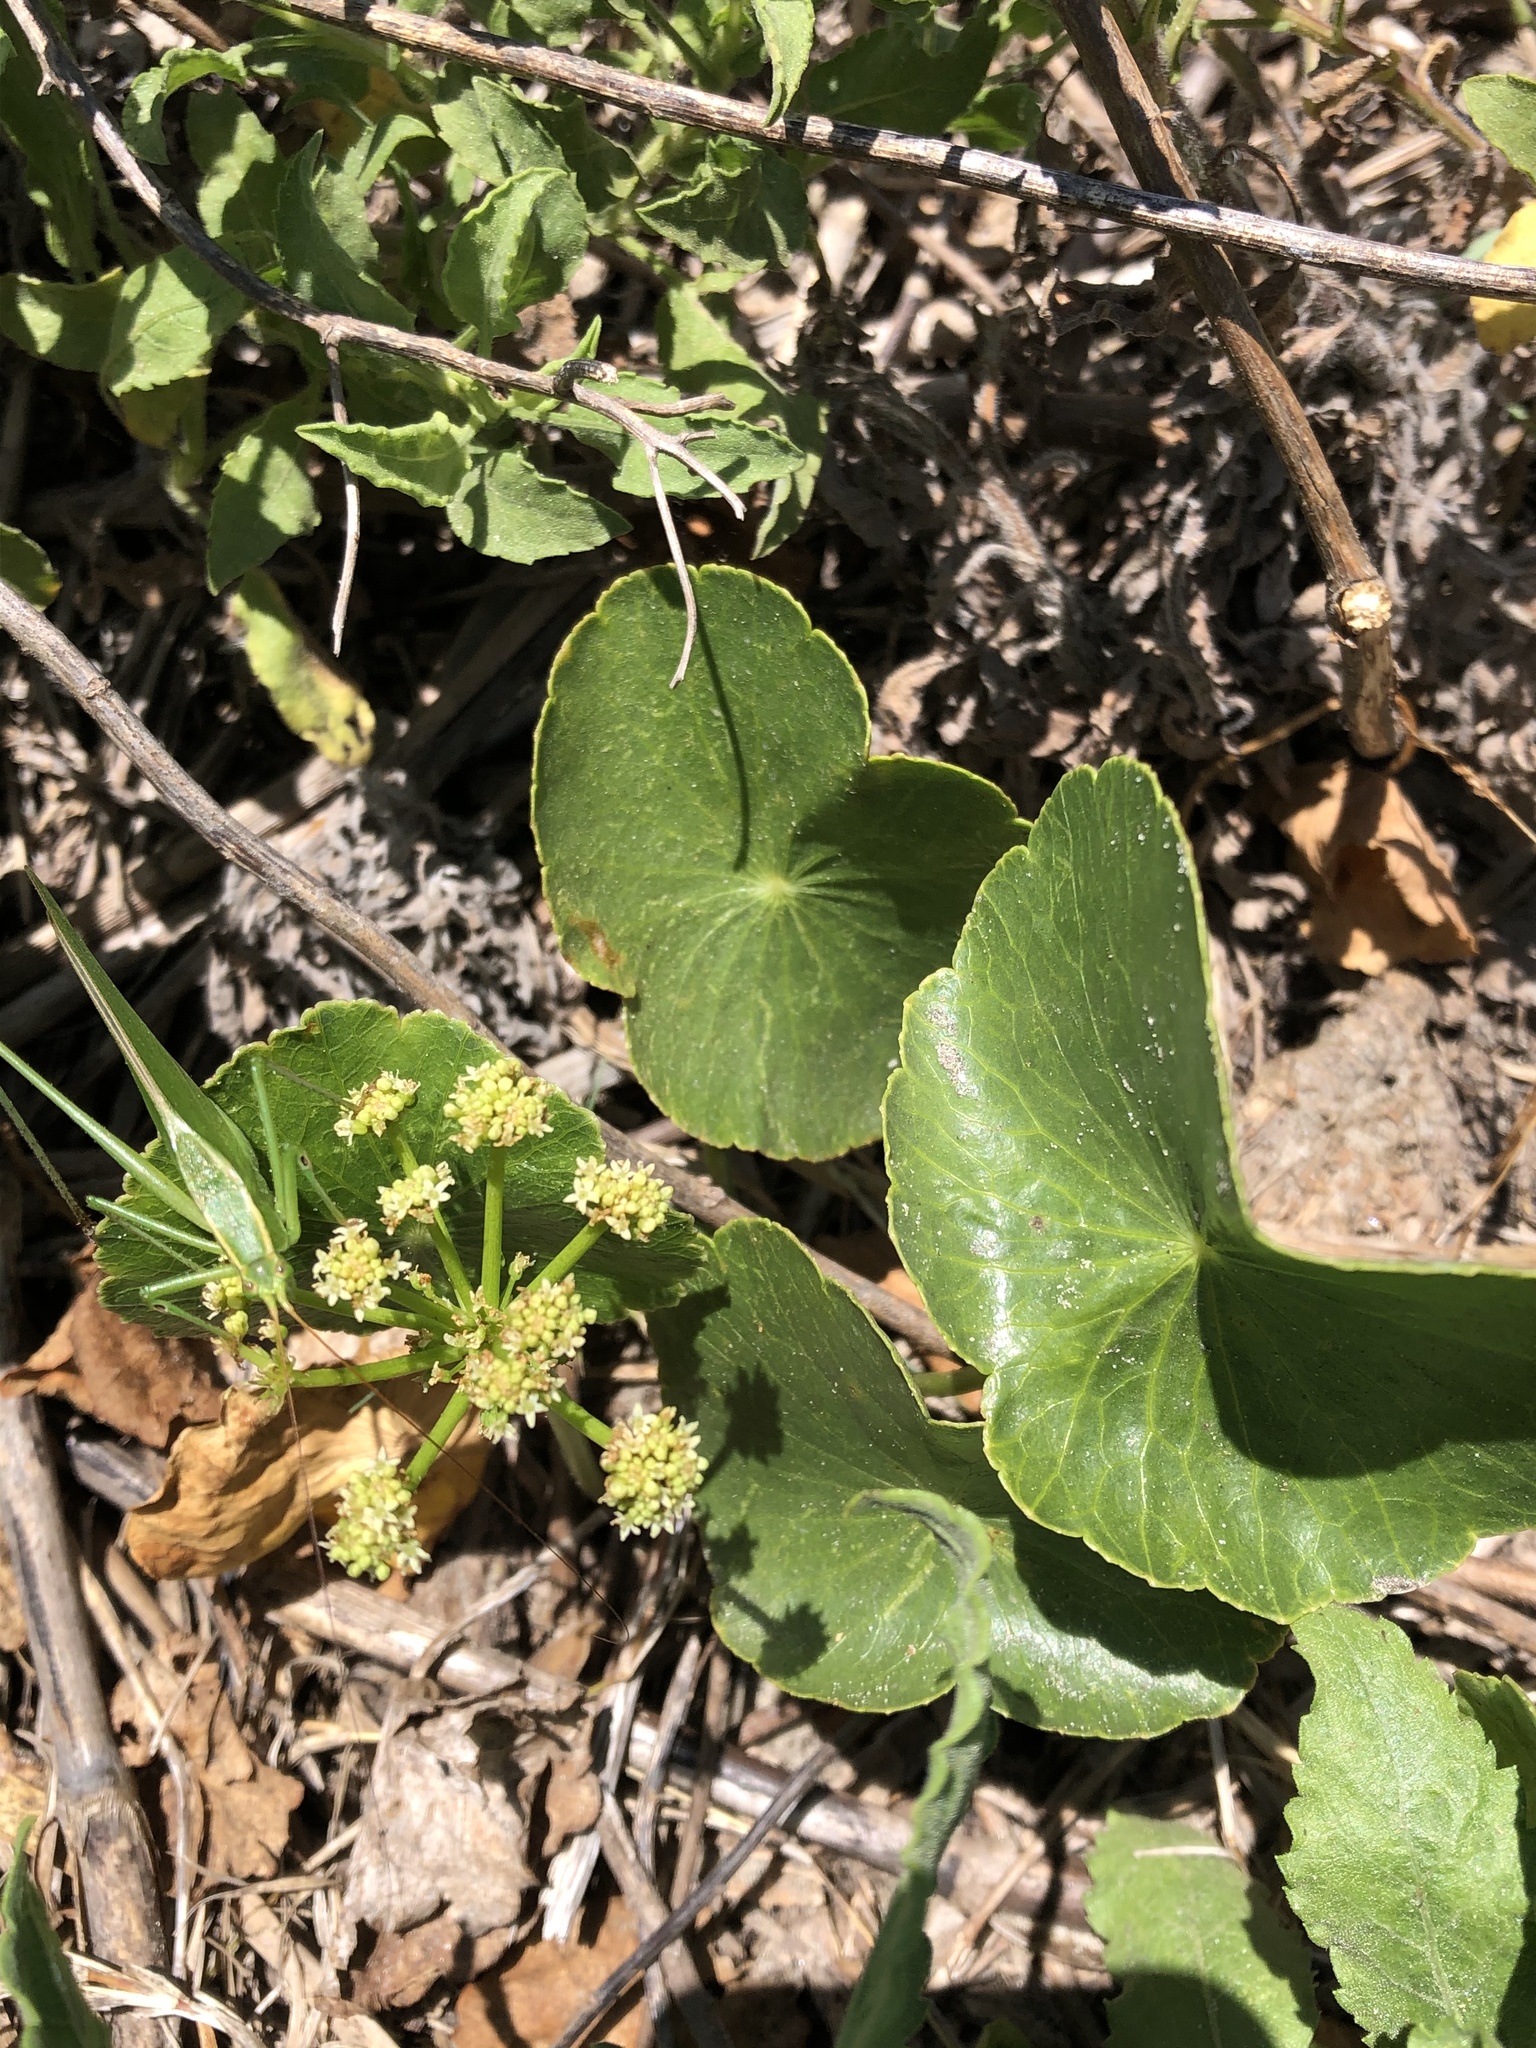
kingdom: Plantae
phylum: Tracheophyta
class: Magnoliopsida
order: Apiales
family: Araliaceae
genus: Hydrocotyle
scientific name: Hydrocotyle bonariensis
